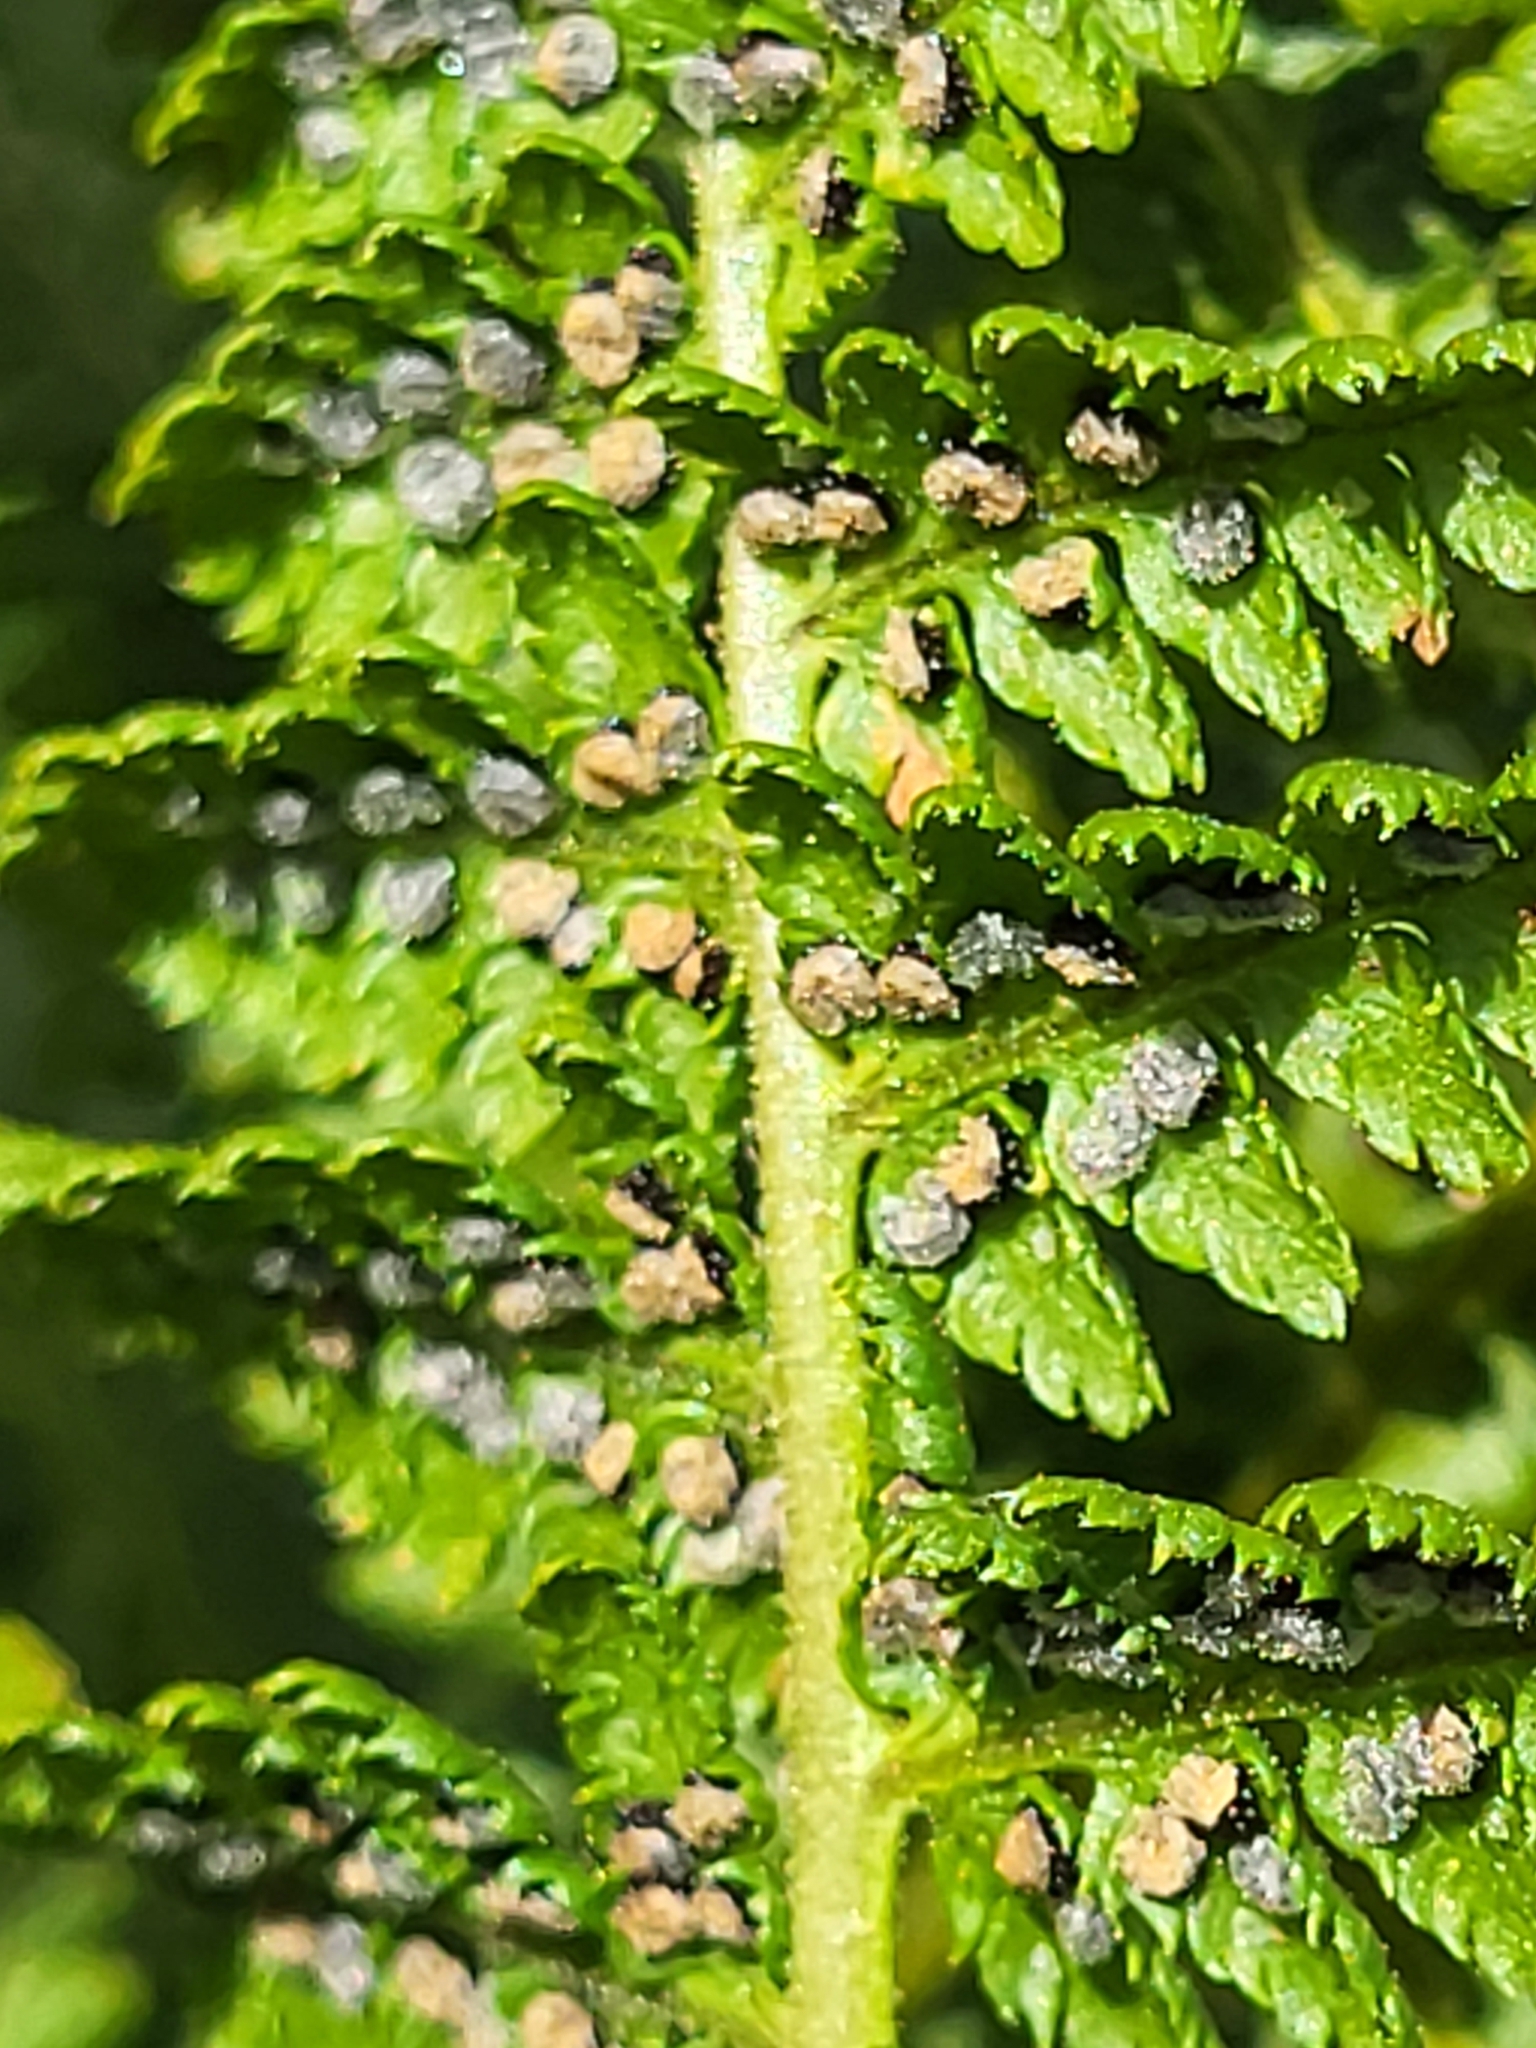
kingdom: Plantae
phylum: Tracheophyta
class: Polypodiopsida
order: Polypodiales
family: Dryopteridaceae
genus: Dryopteris
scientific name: Dryopteris villarii
